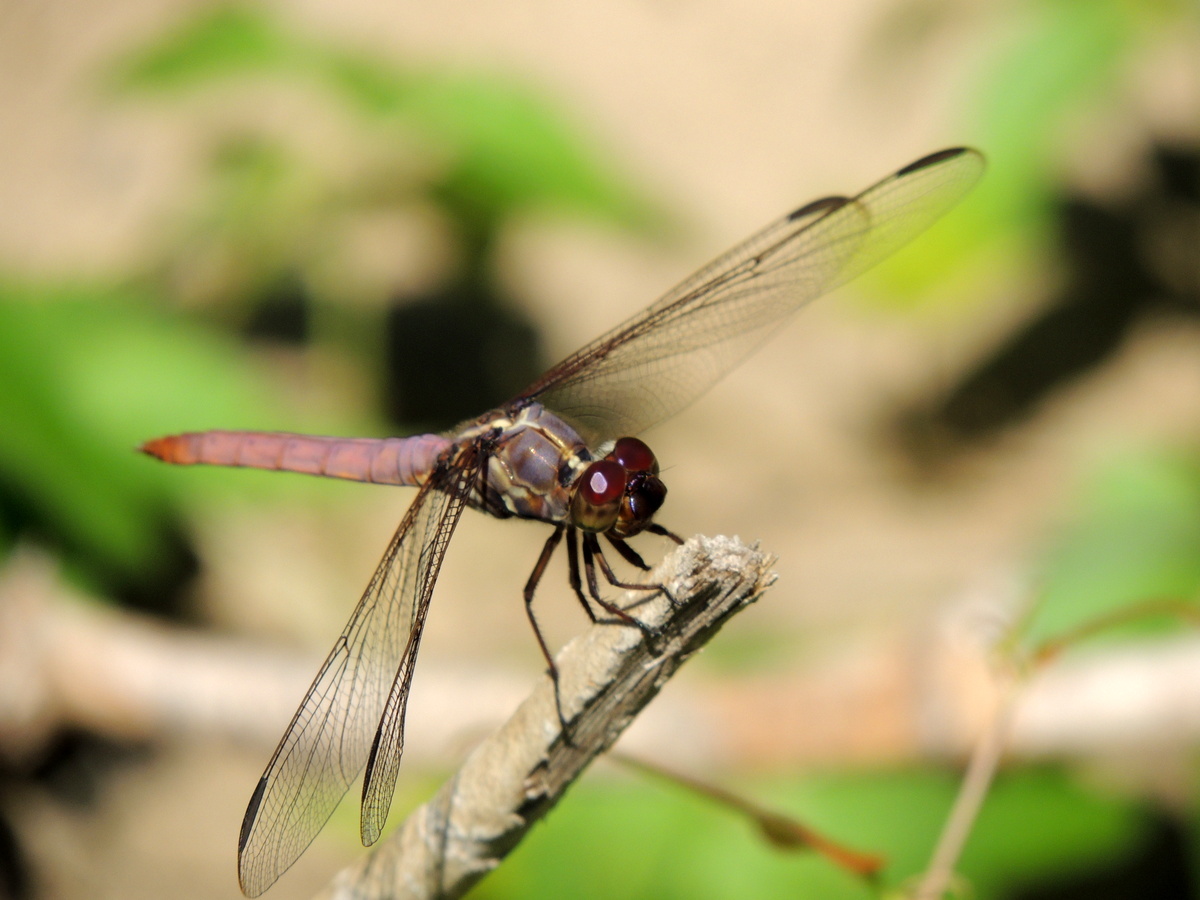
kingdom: Animalia
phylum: Arthropoda
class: Insecta
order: Odonata
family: Libellulidae
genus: Orthemis
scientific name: Orthemis ferruginea
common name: Roseate skimmer
